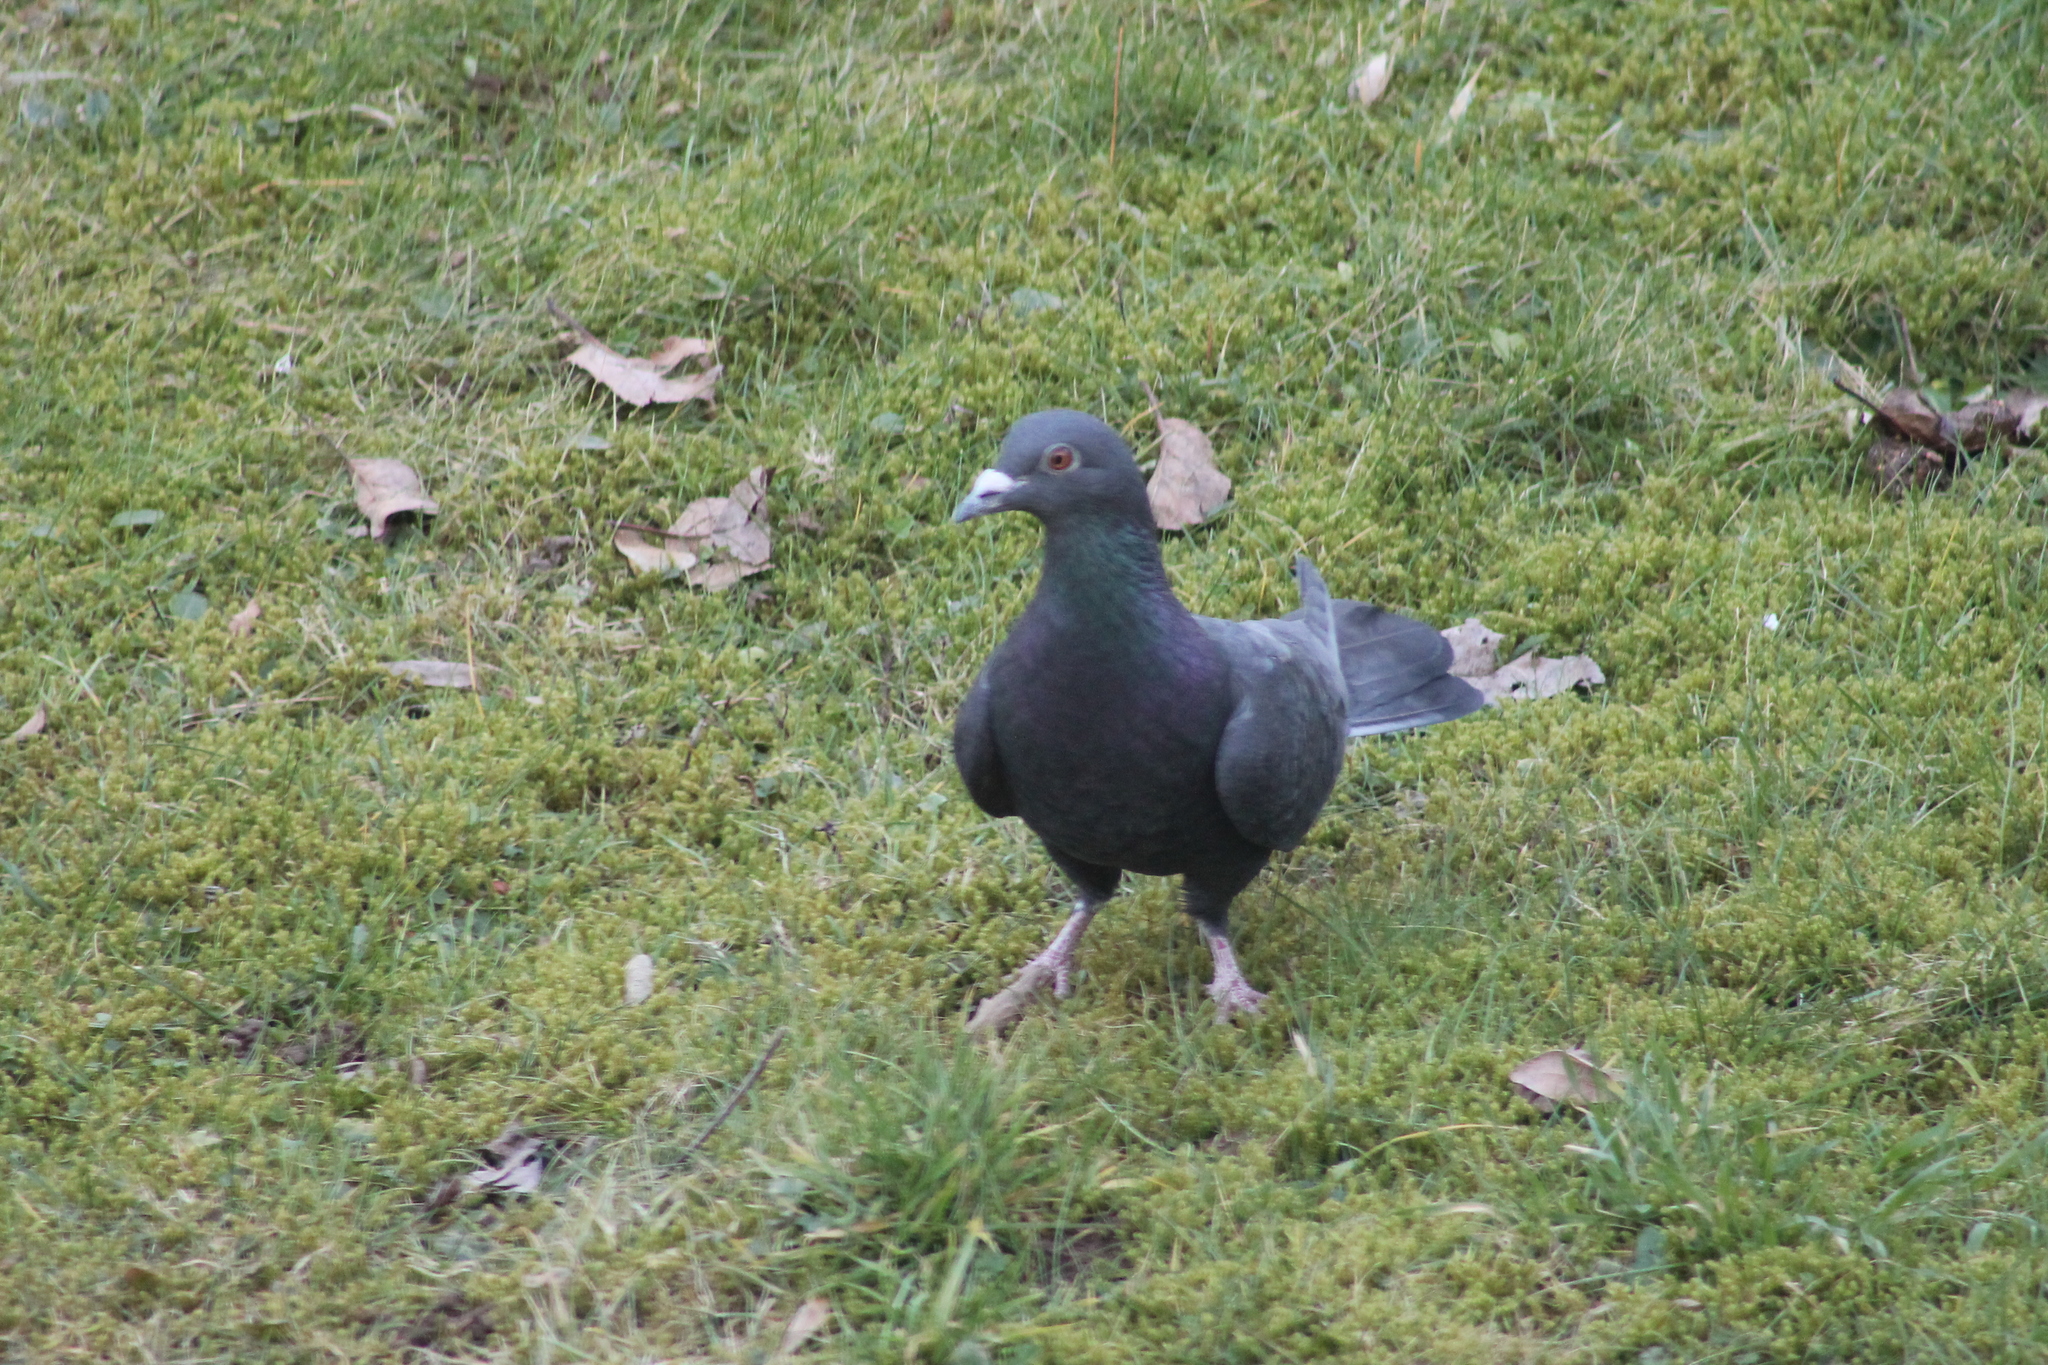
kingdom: Animalia
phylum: Chordata
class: Aves
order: Columbiformes
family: Columbidae
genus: Columba
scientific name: Columba livia
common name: Rock pigeon
